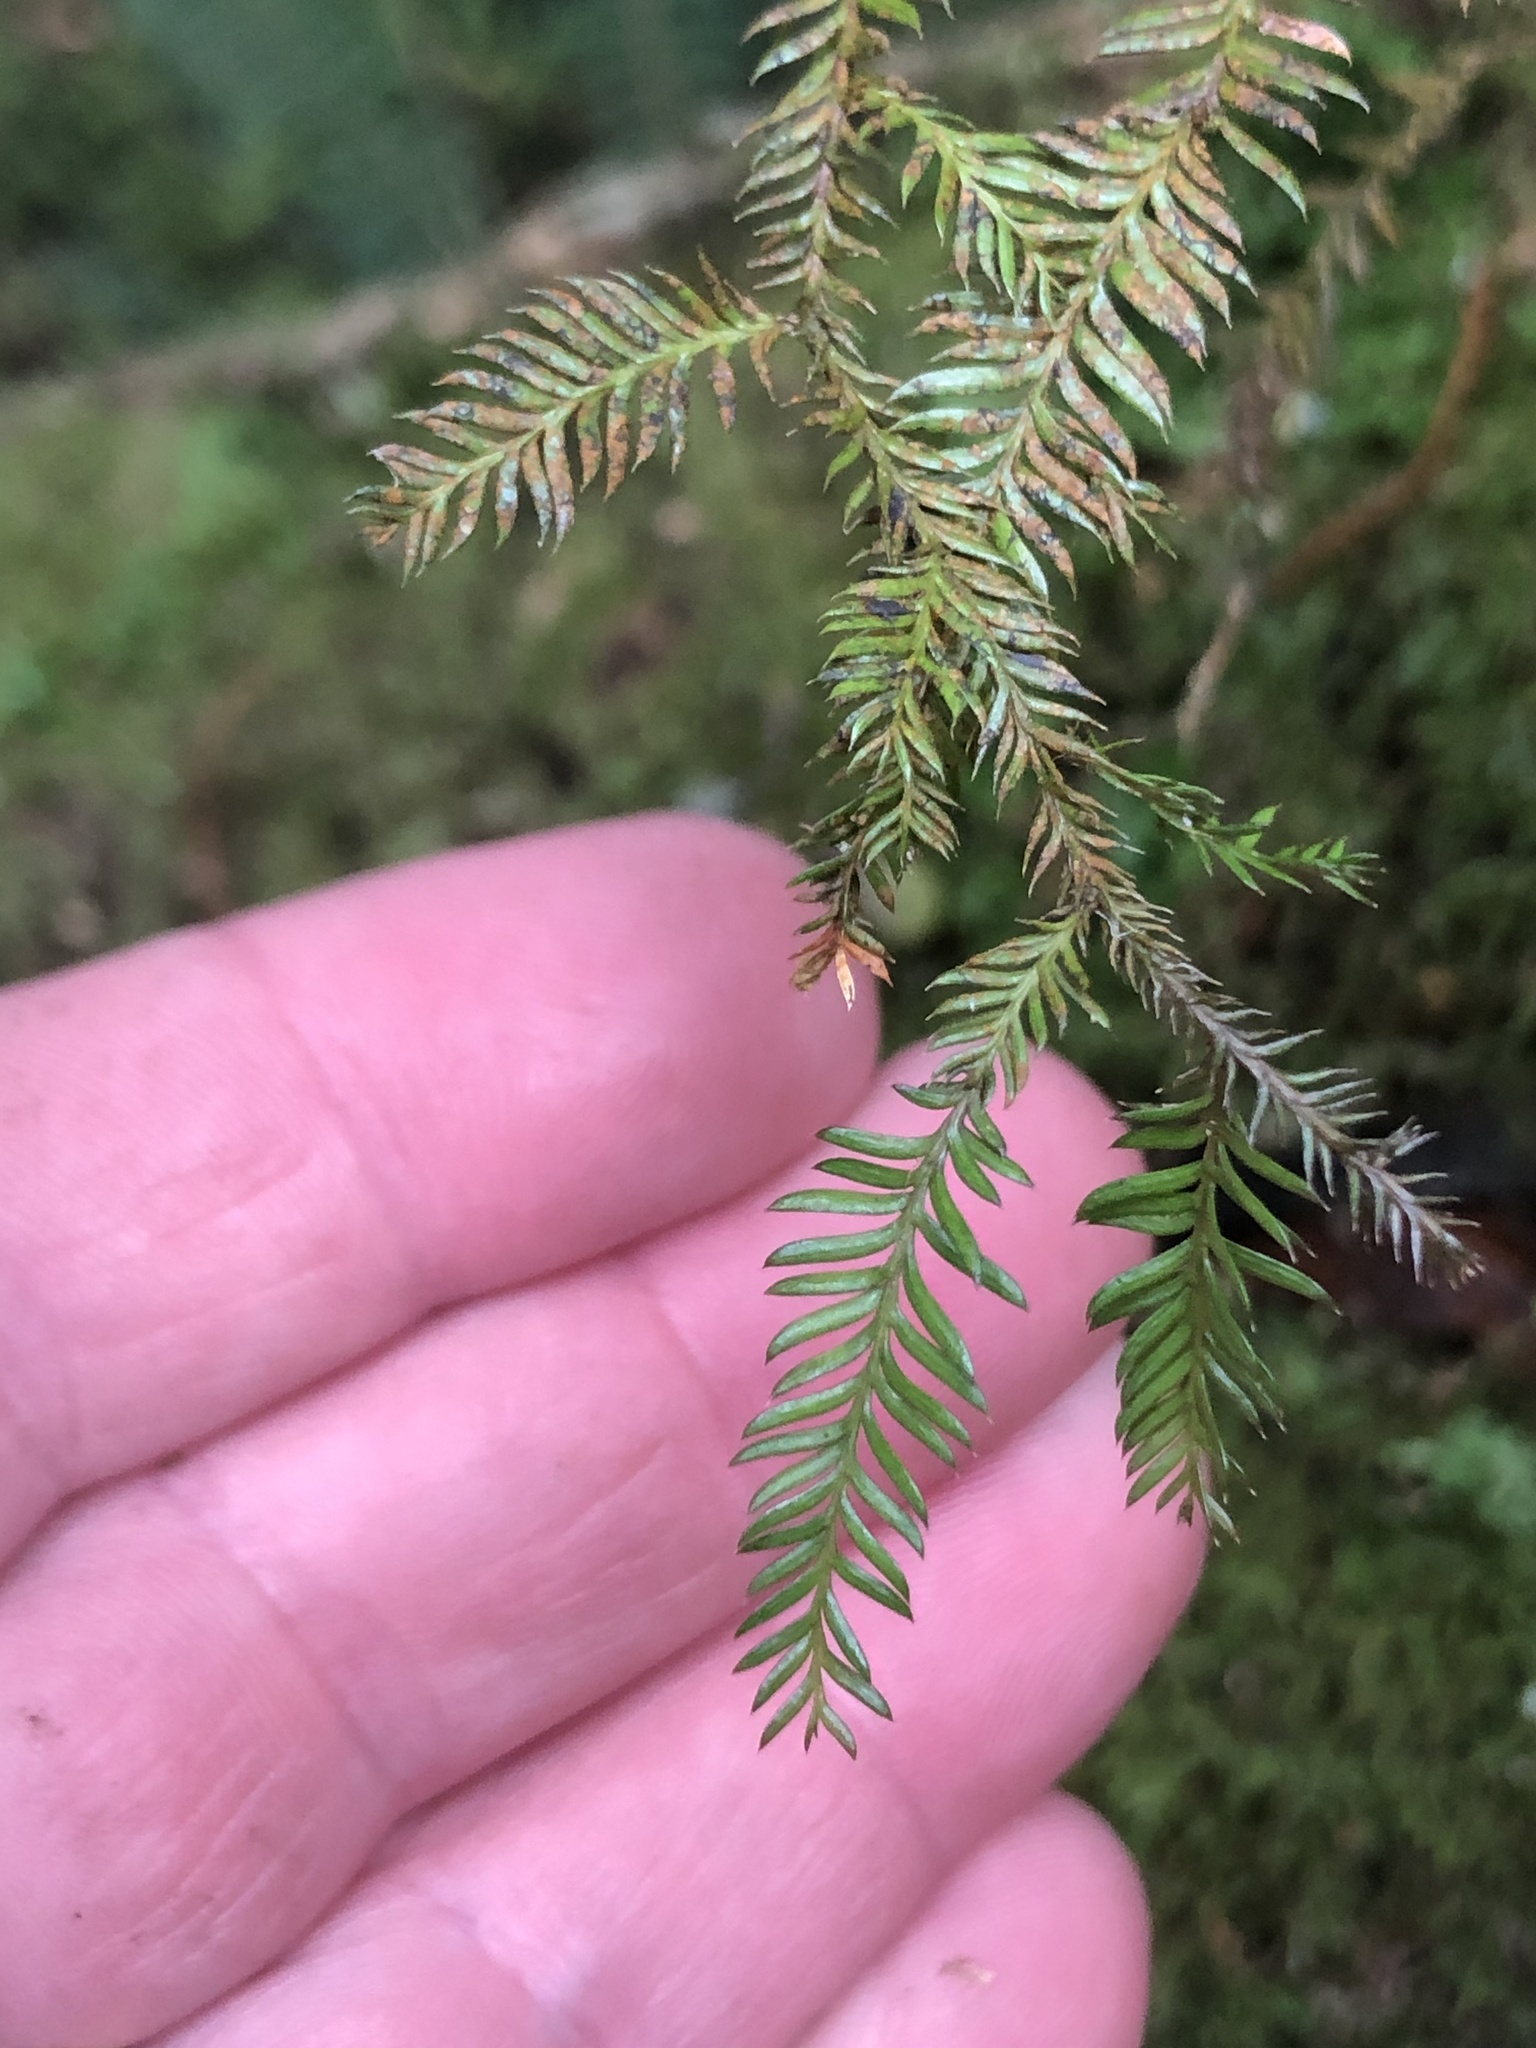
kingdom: Plantae
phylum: Tracheophyta
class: Pinopsida
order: Pinales
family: Podocarpaceae
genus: Dacrycarpus
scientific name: Dacrycarpus dacrydioides
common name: White pine
